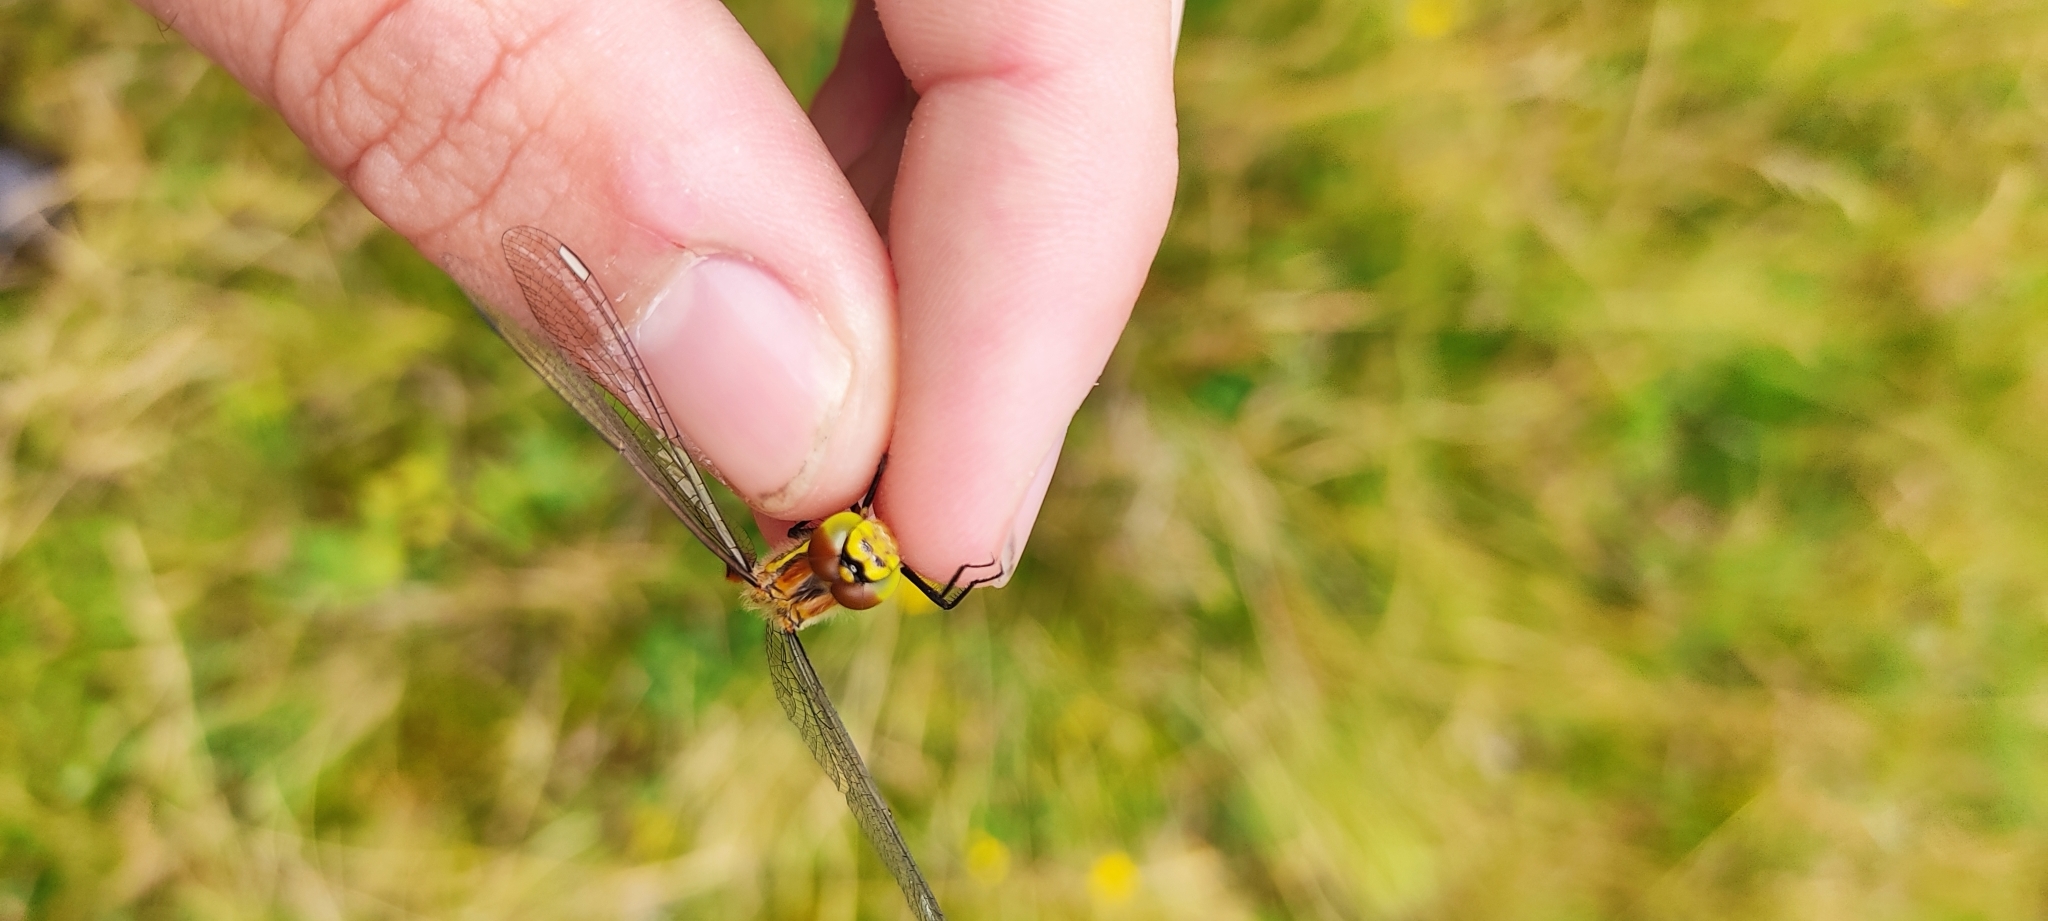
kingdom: Animalia
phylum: Arthropoda
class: Insecta
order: Odonata
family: Libellulidae
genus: Sympetrum
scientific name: Sympetrum danae
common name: Black darter
